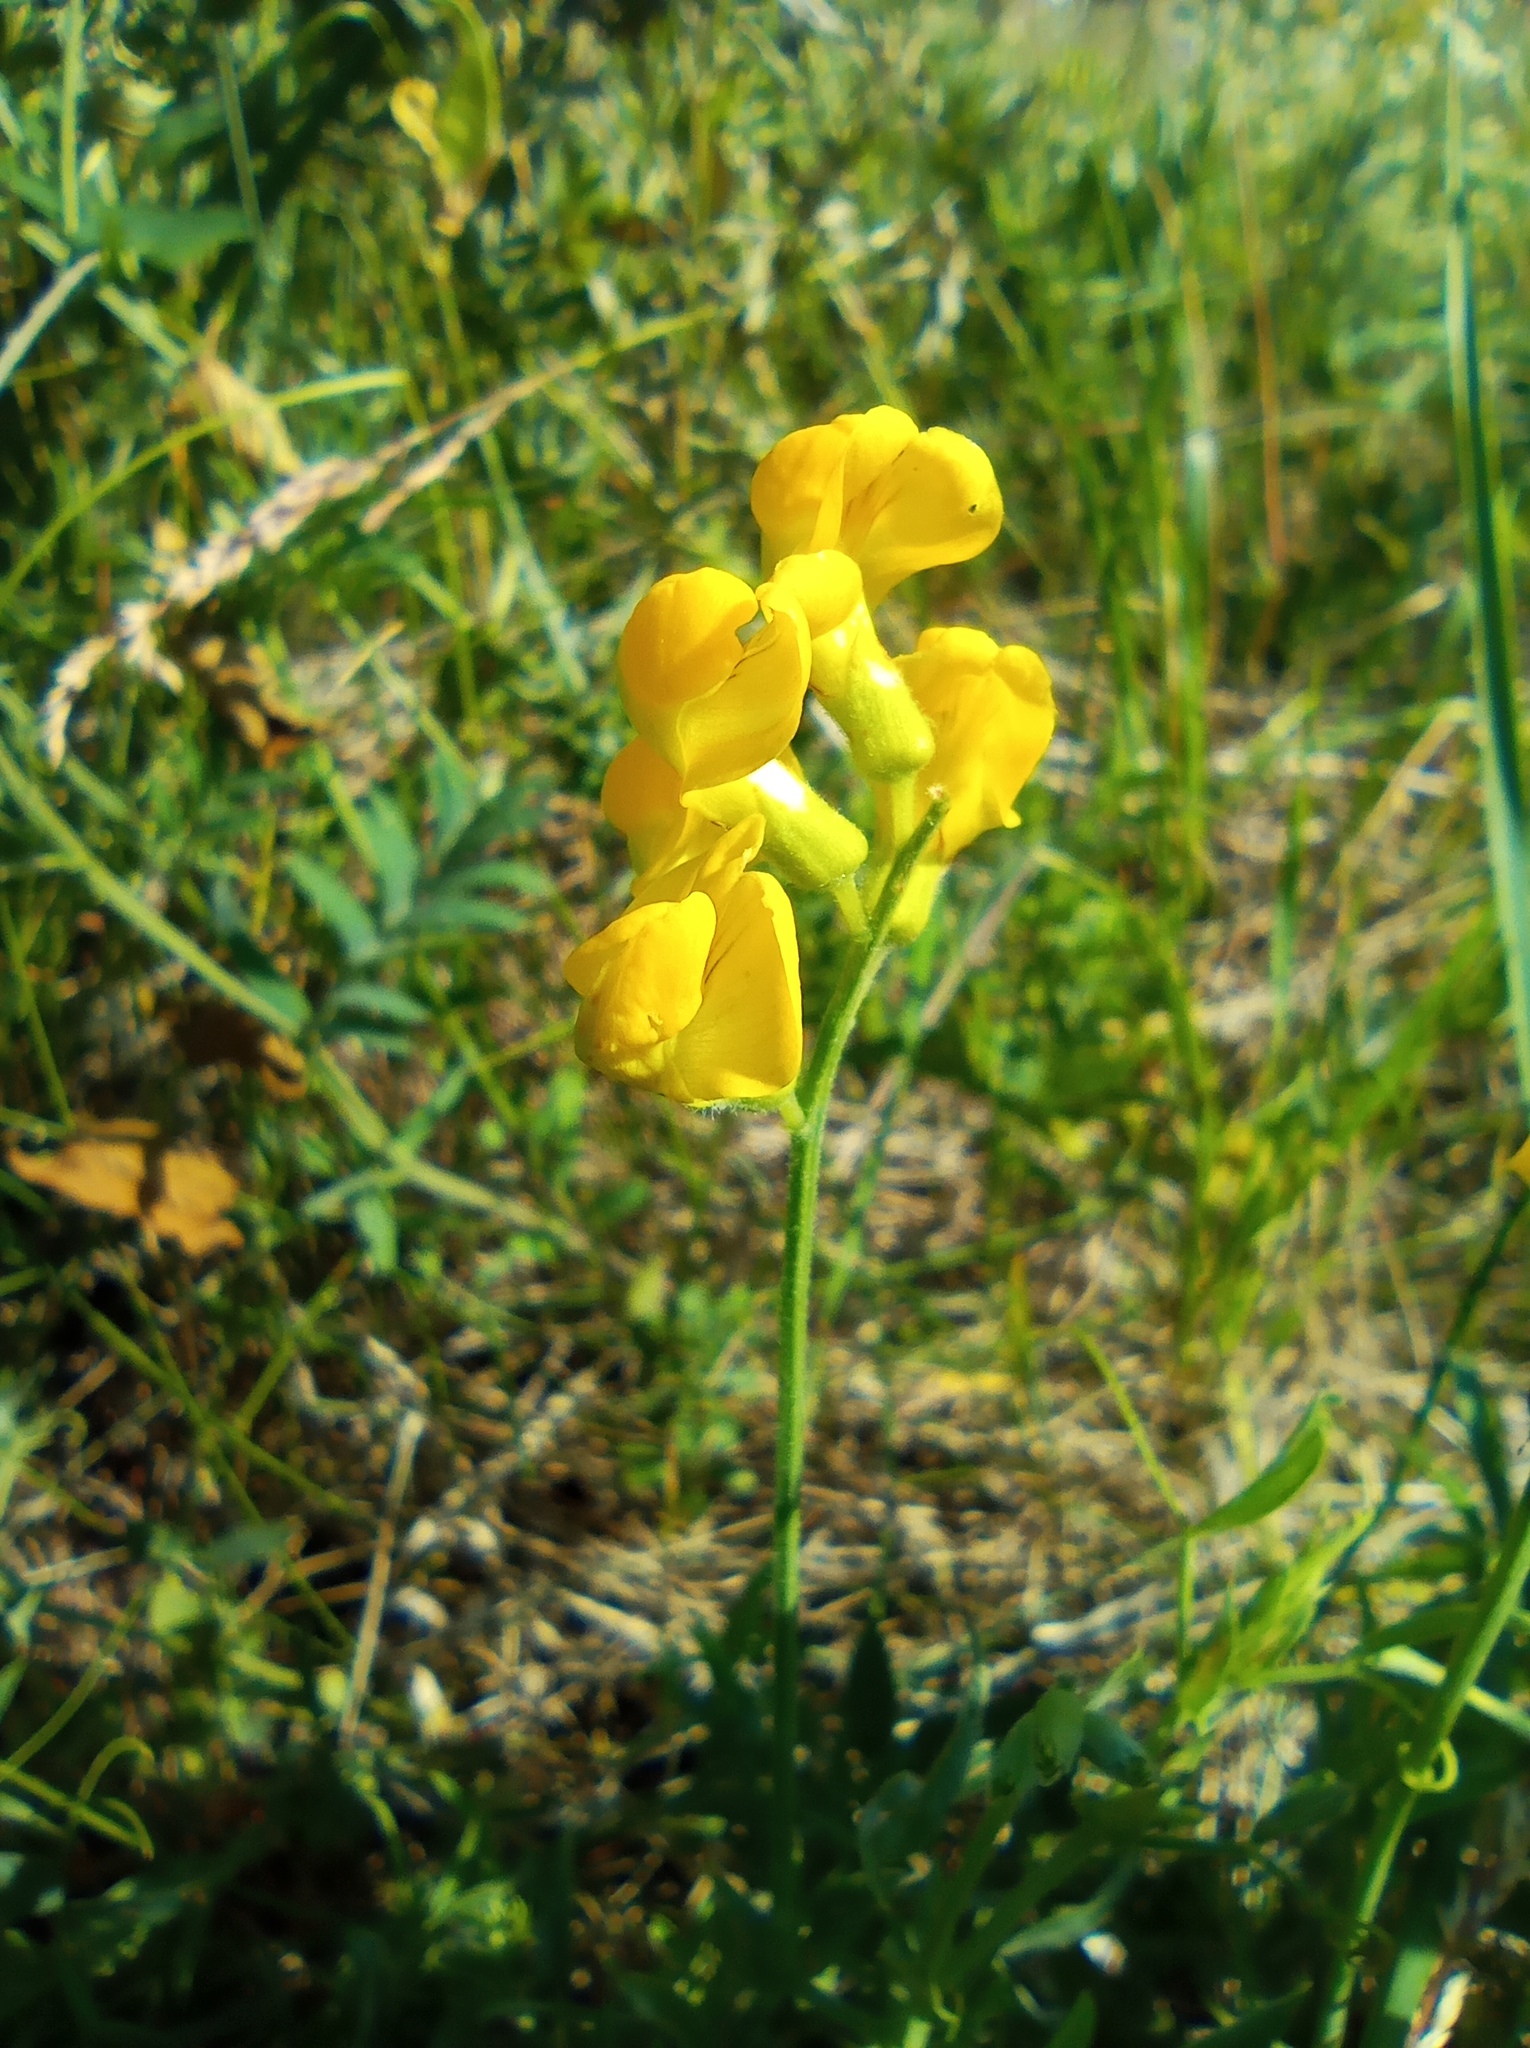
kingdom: Plantae
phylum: Tracheophyta
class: Magnoliopsida
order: Fabales
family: Fabaceae
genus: Lathyrus
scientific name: Lathyrus pratensis
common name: Meadow vetchling
